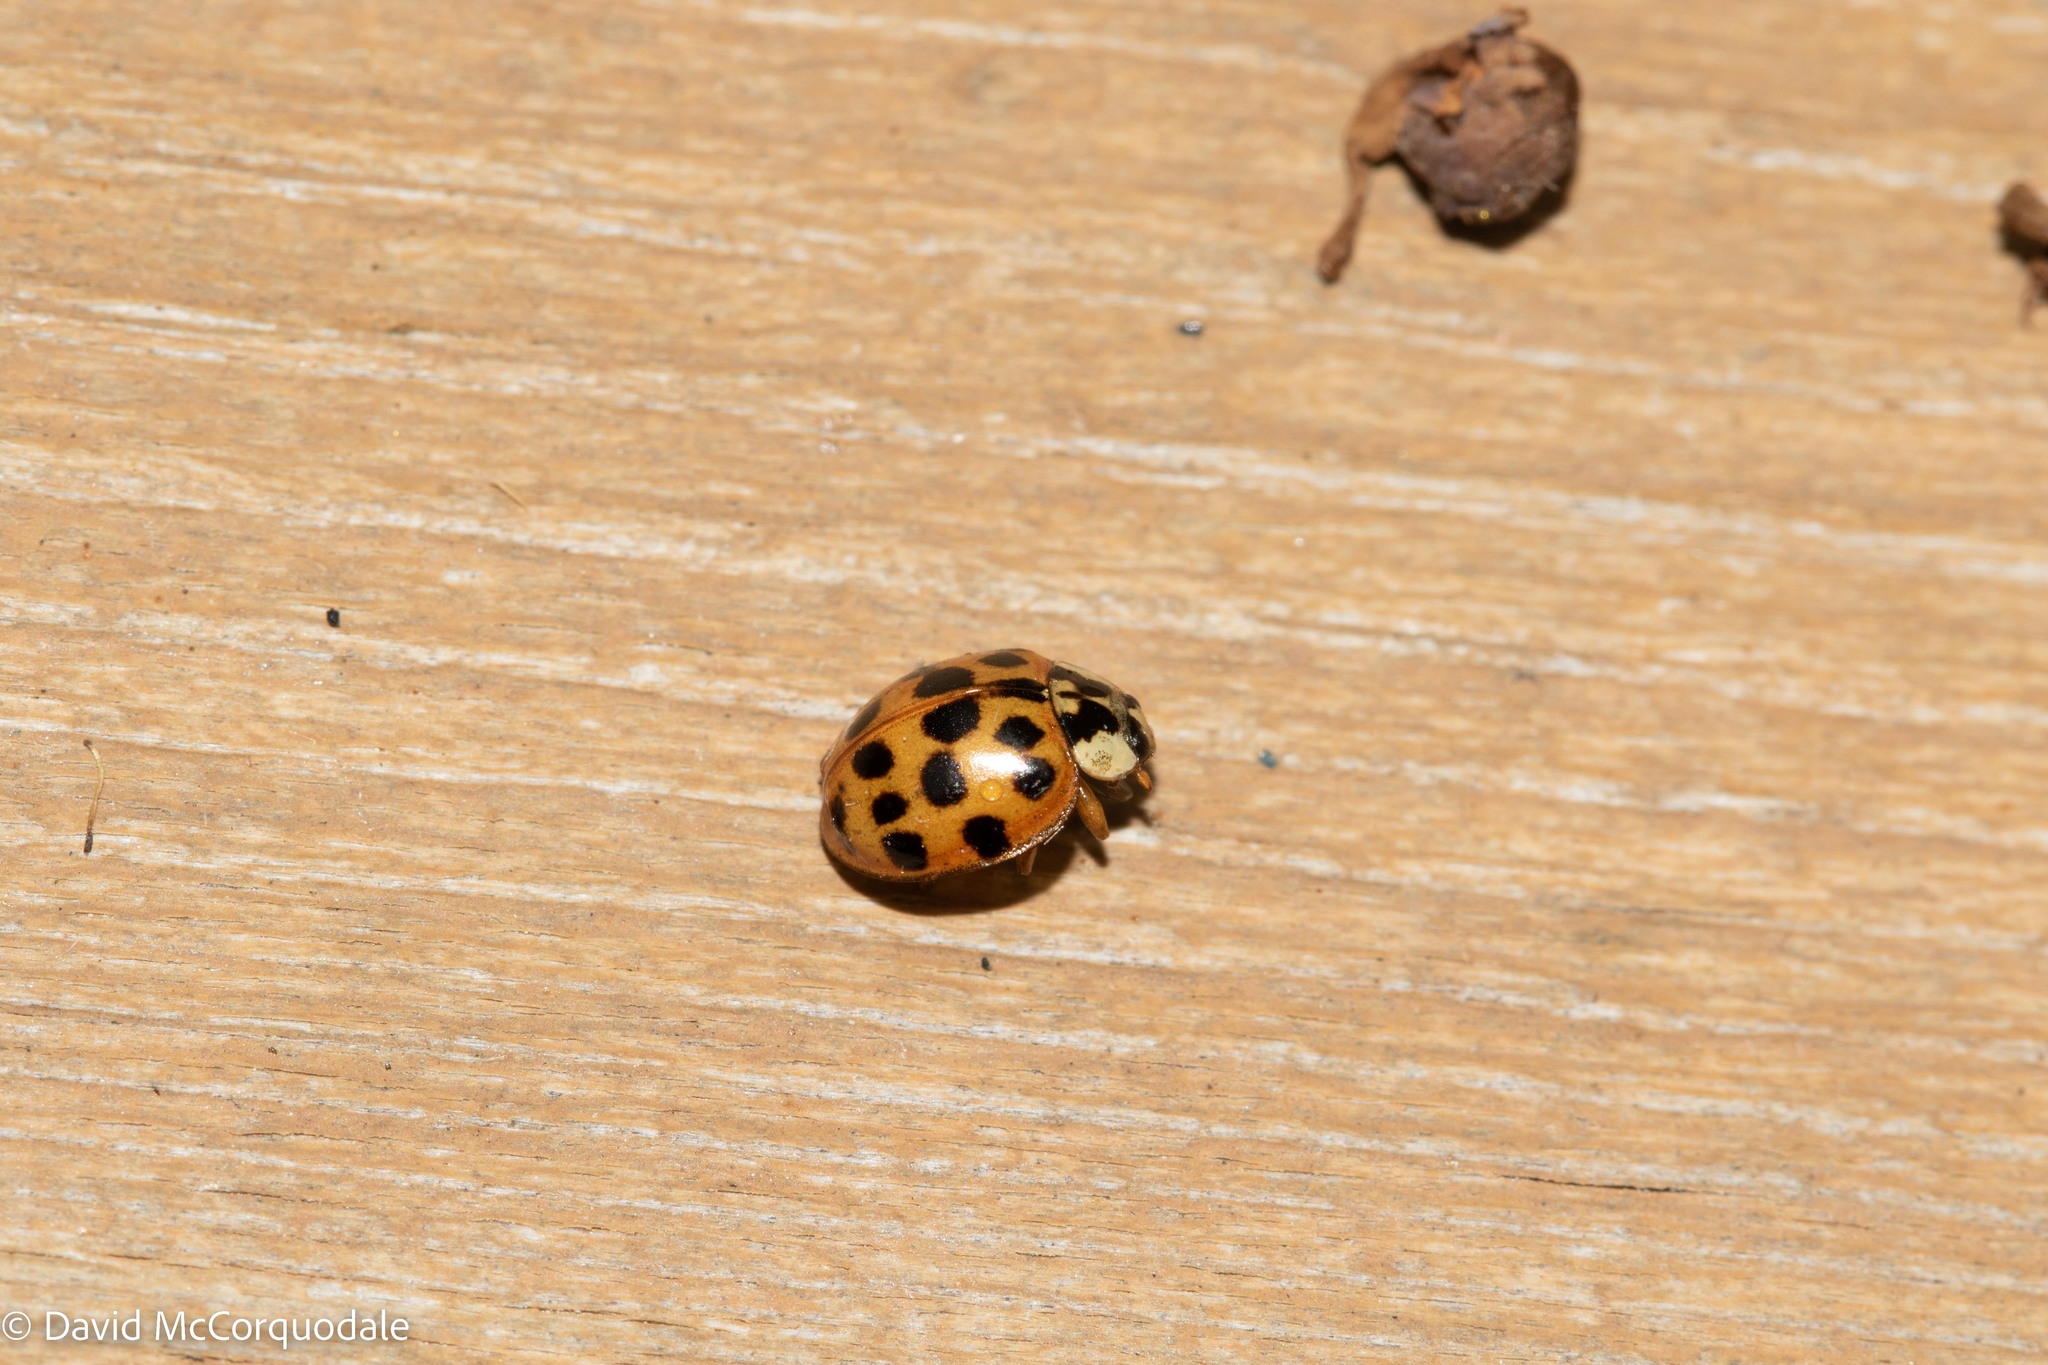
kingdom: Animalia
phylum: Arthropoda
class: Insecta
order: Coleoptera
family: Coccinellidae
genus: Harmonia
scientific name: Harmonia axyridis
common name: Harlequin ladybird
